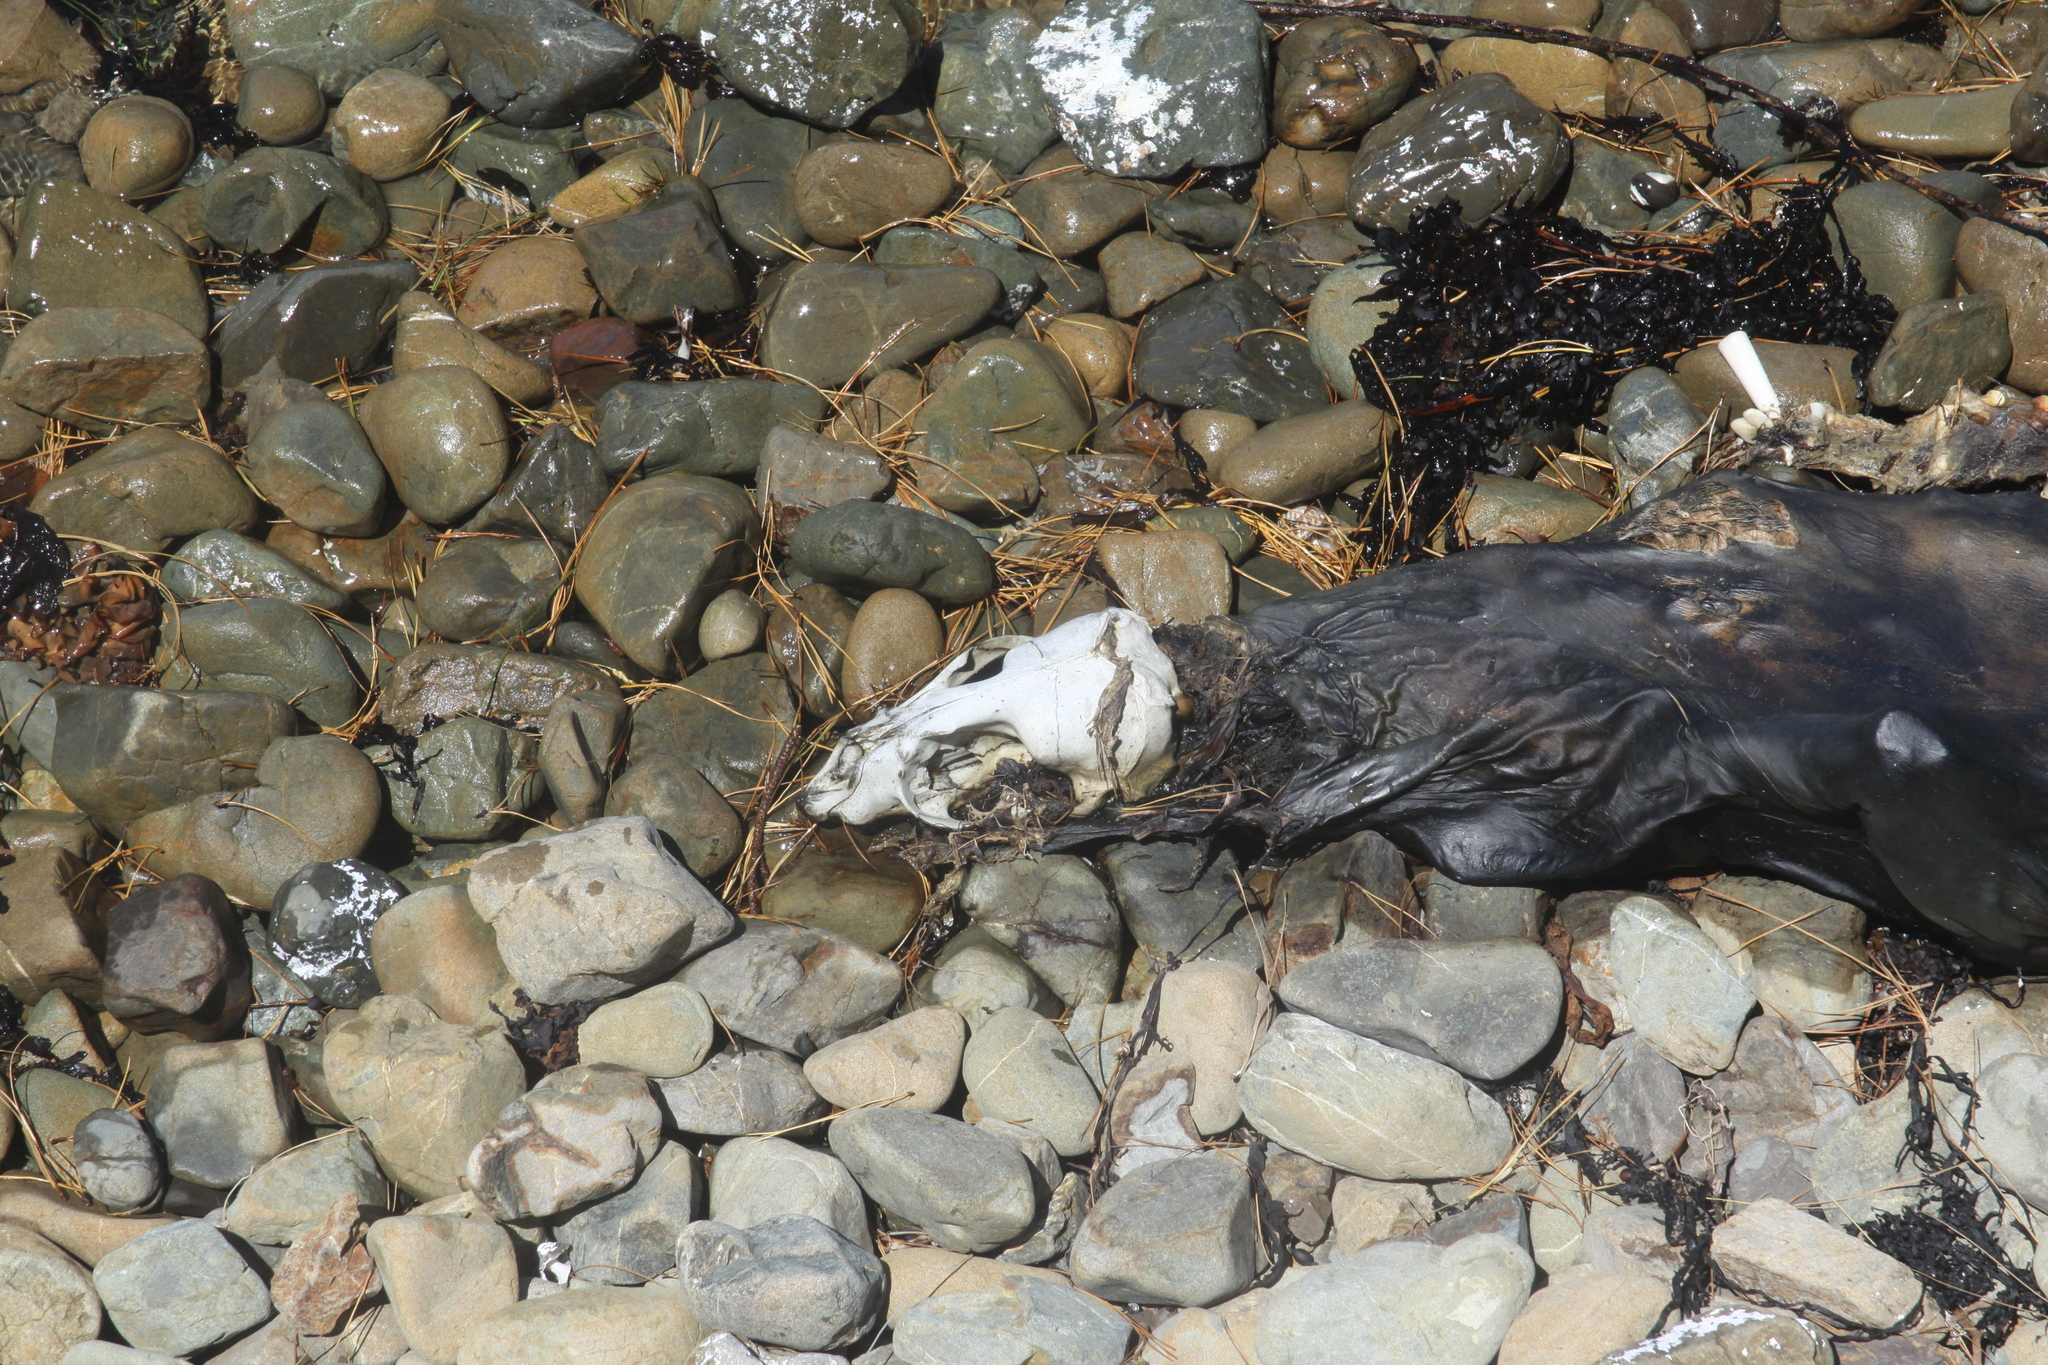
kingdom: Animalia
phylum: Chordata
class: Mammalia
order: Carnivora
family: Otariidae
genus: Arctocephalus
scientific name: Arctocephalus forsteri
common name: New zealand fur seal
